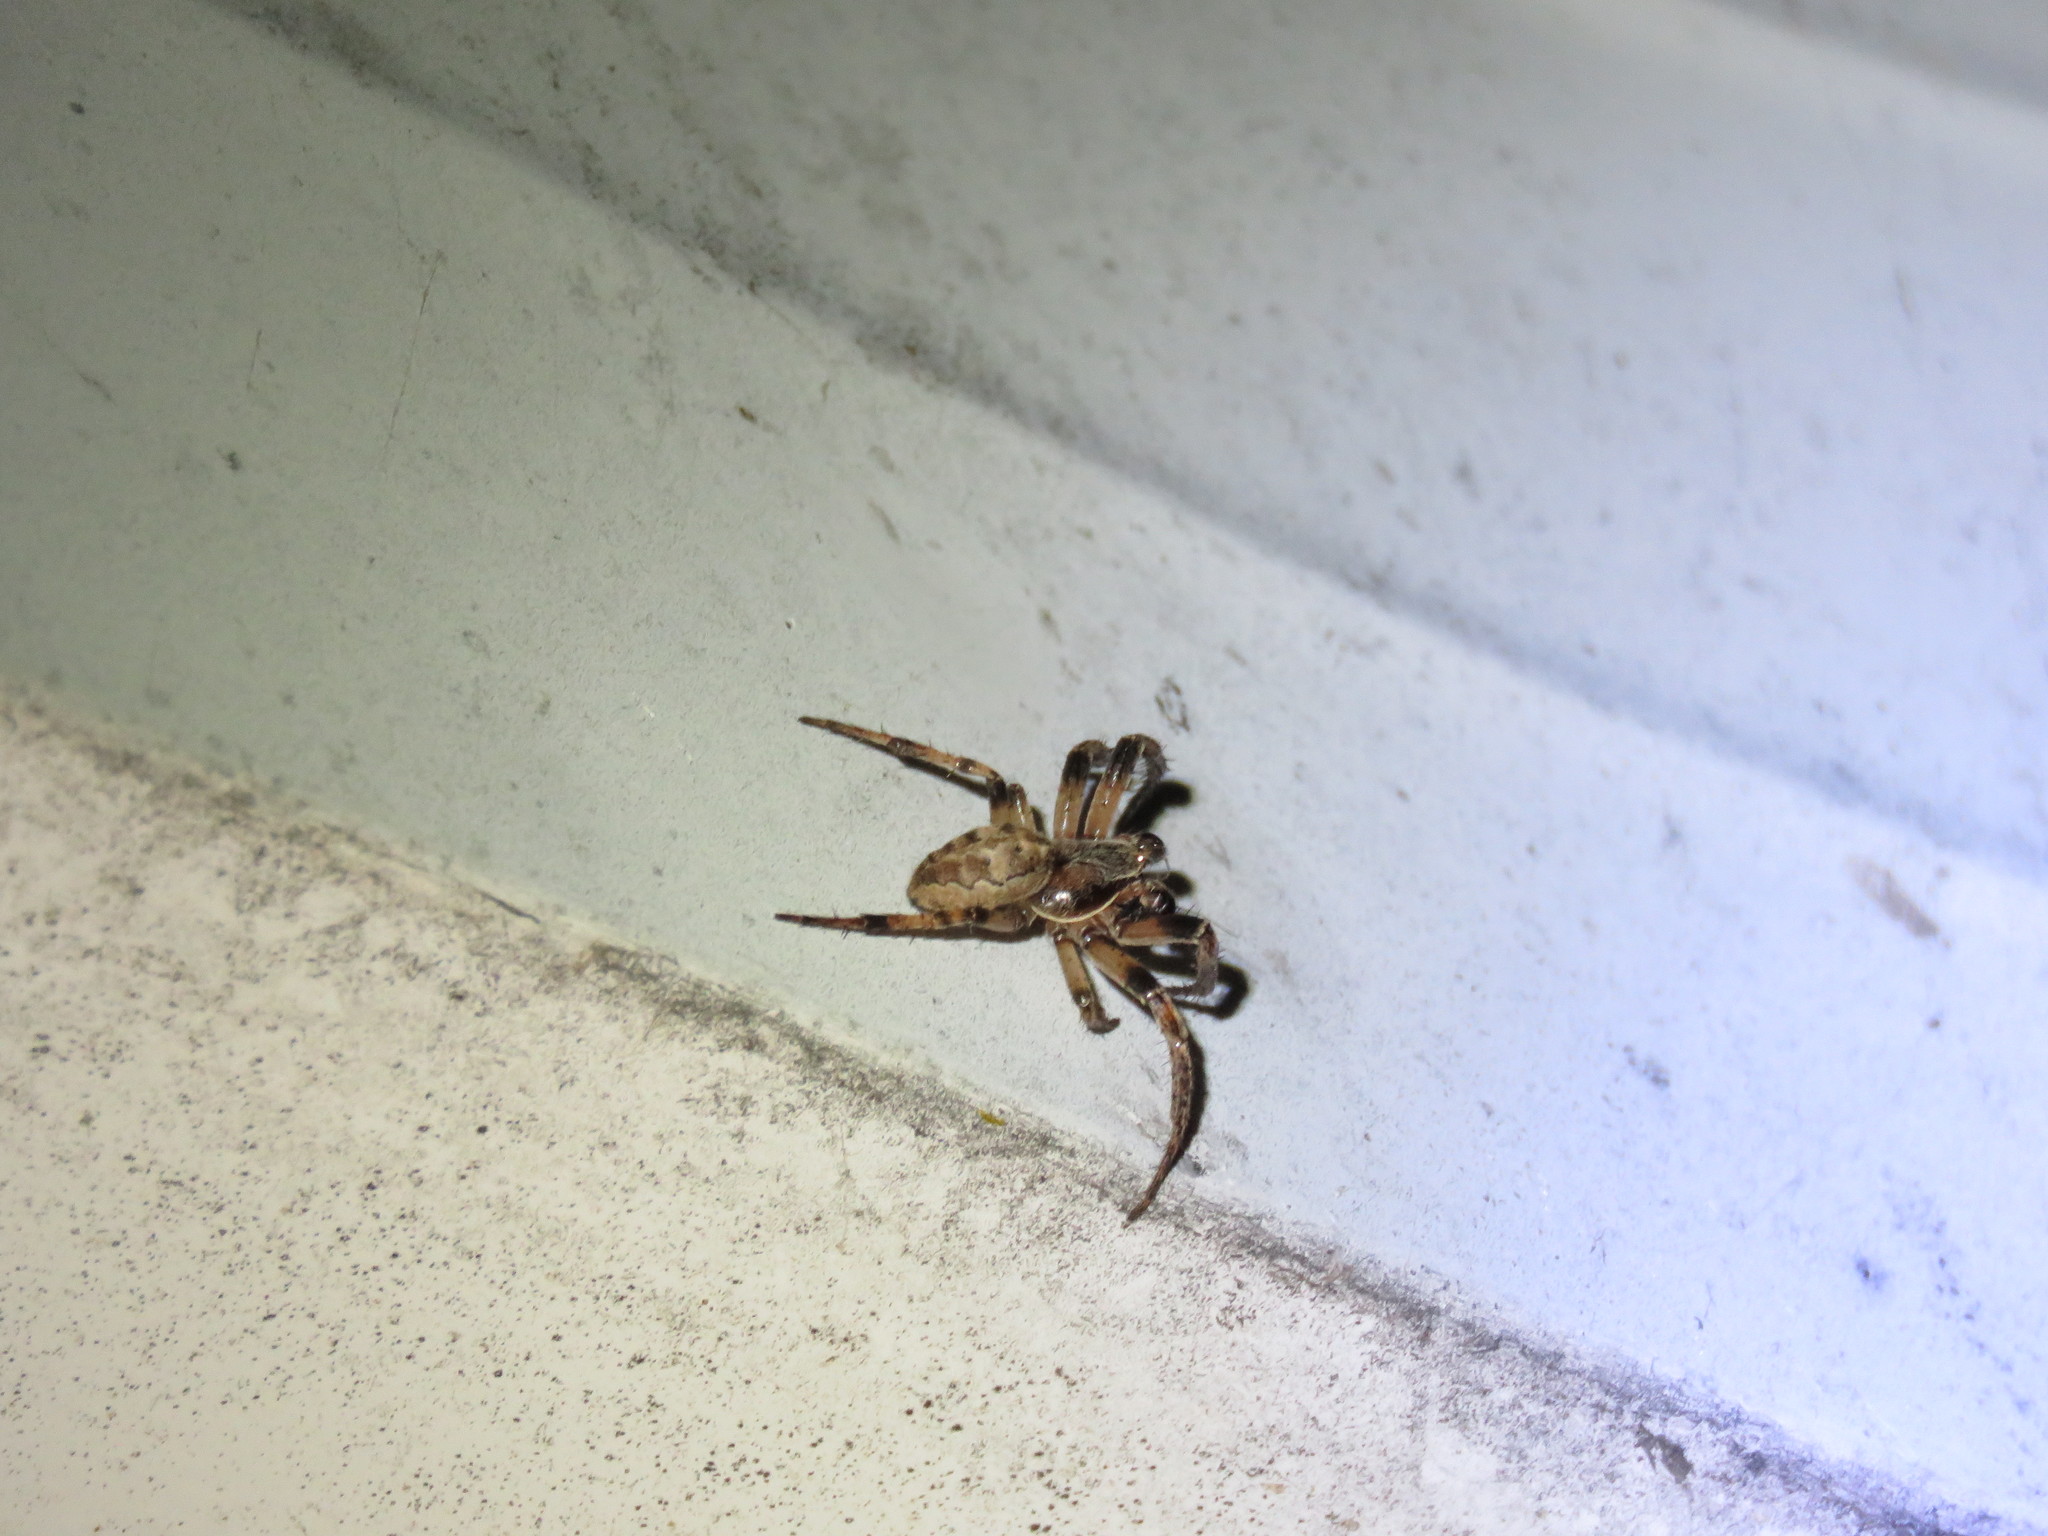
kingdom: Animalia
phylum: Arthropoda
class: Arachnida
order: Araneae
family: Araneidae
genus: Larinioides
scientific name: Larinioides cornutus
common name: Furrow orbweaver
